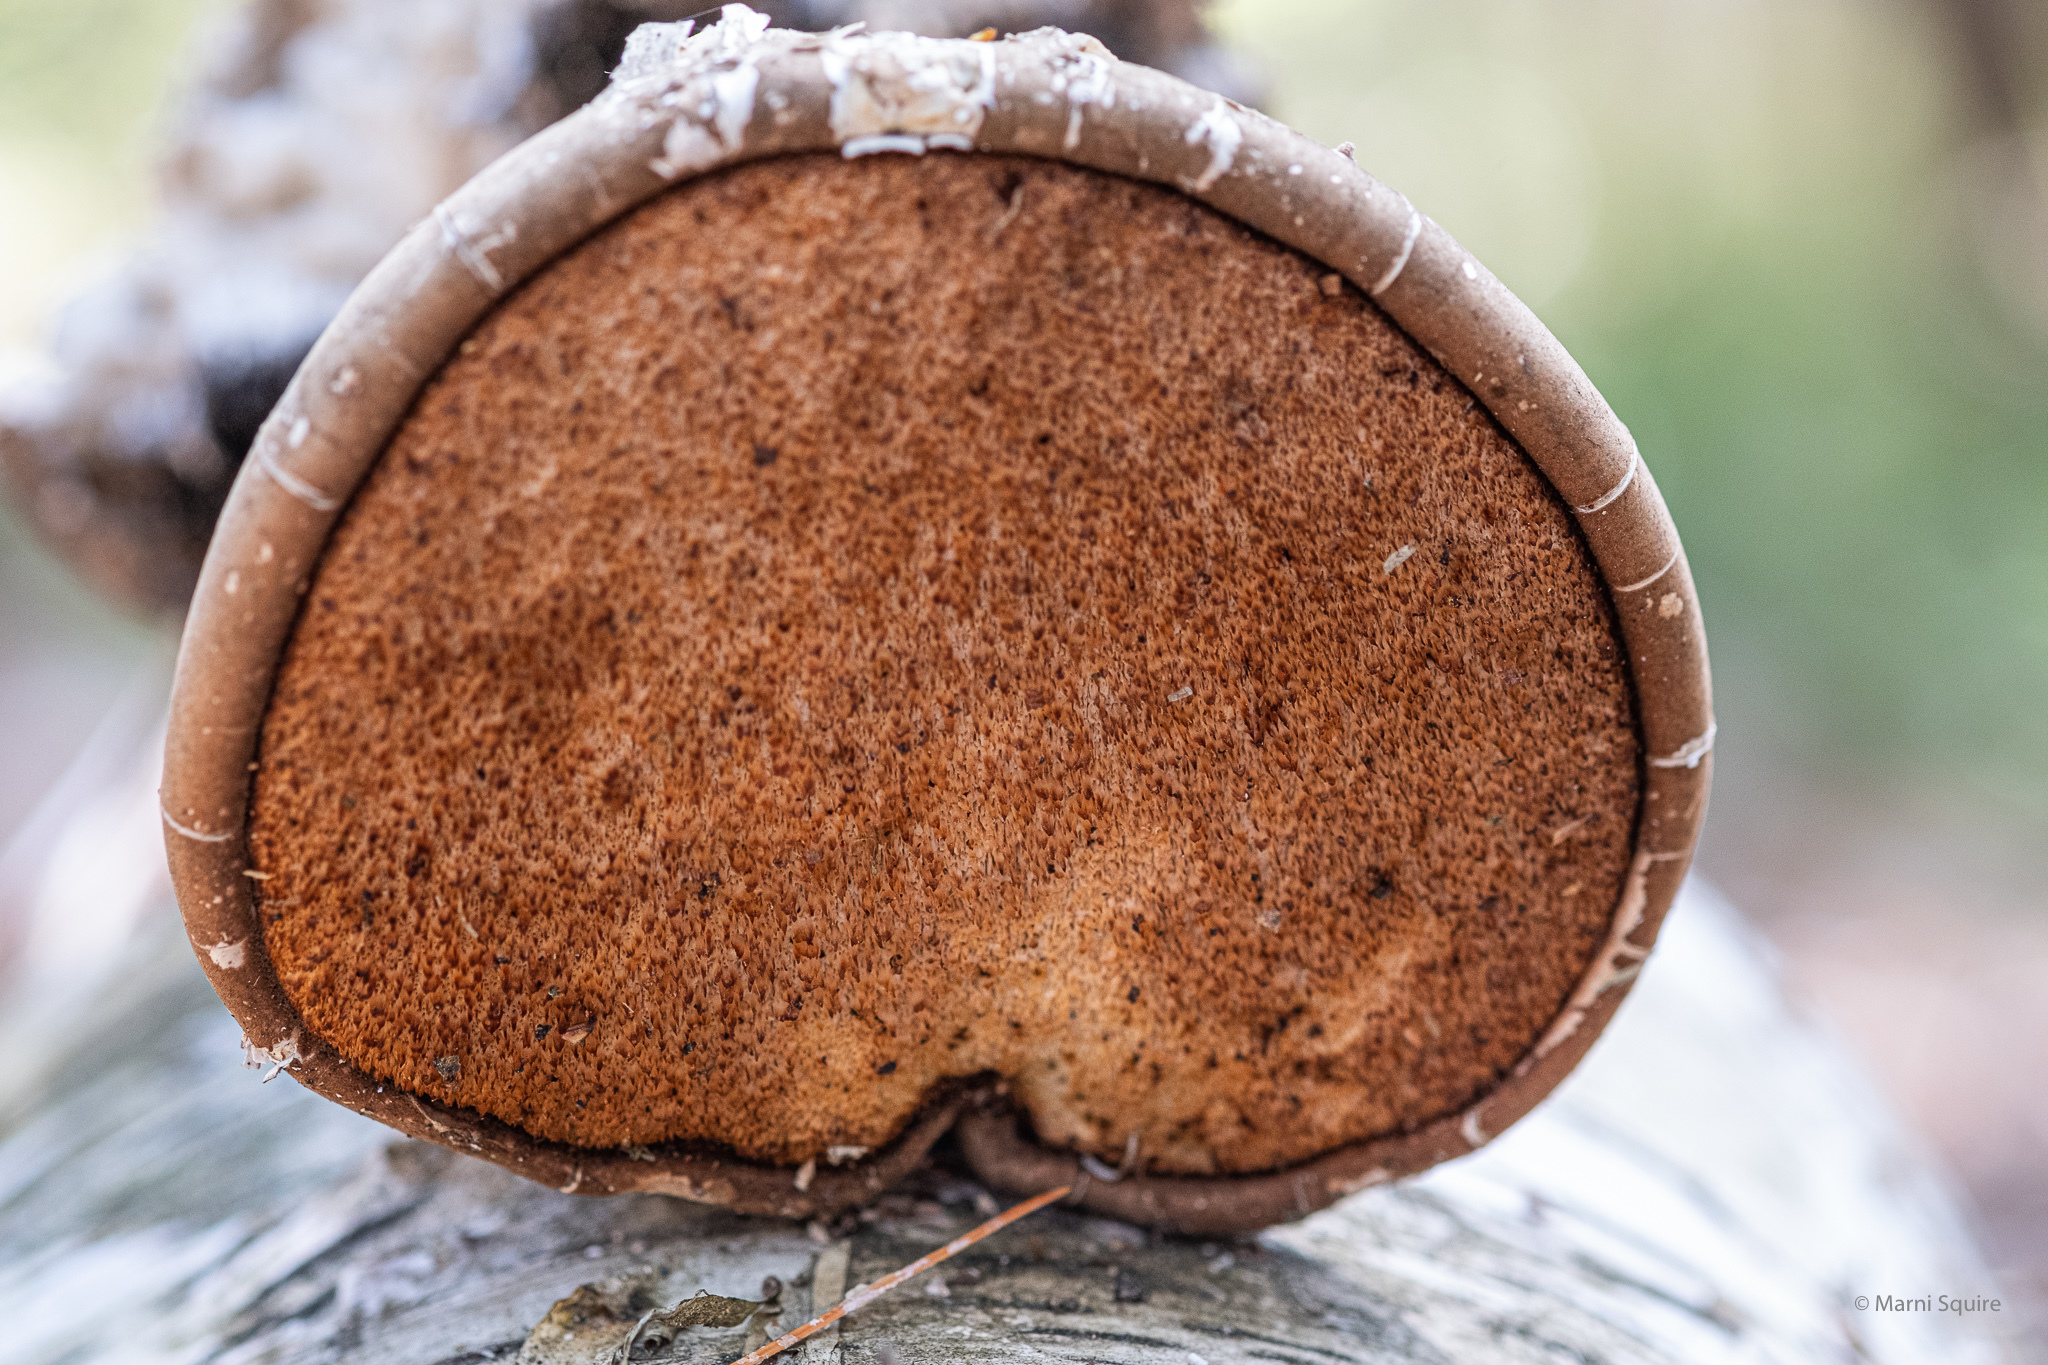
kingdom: Fungi
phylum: Basidiomycota
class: Agaricomycetes
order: Polyporales
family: Fomitopsidaceae
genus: Fomitopsis
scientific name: Fomitopsis betulina
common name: Birch polypore
